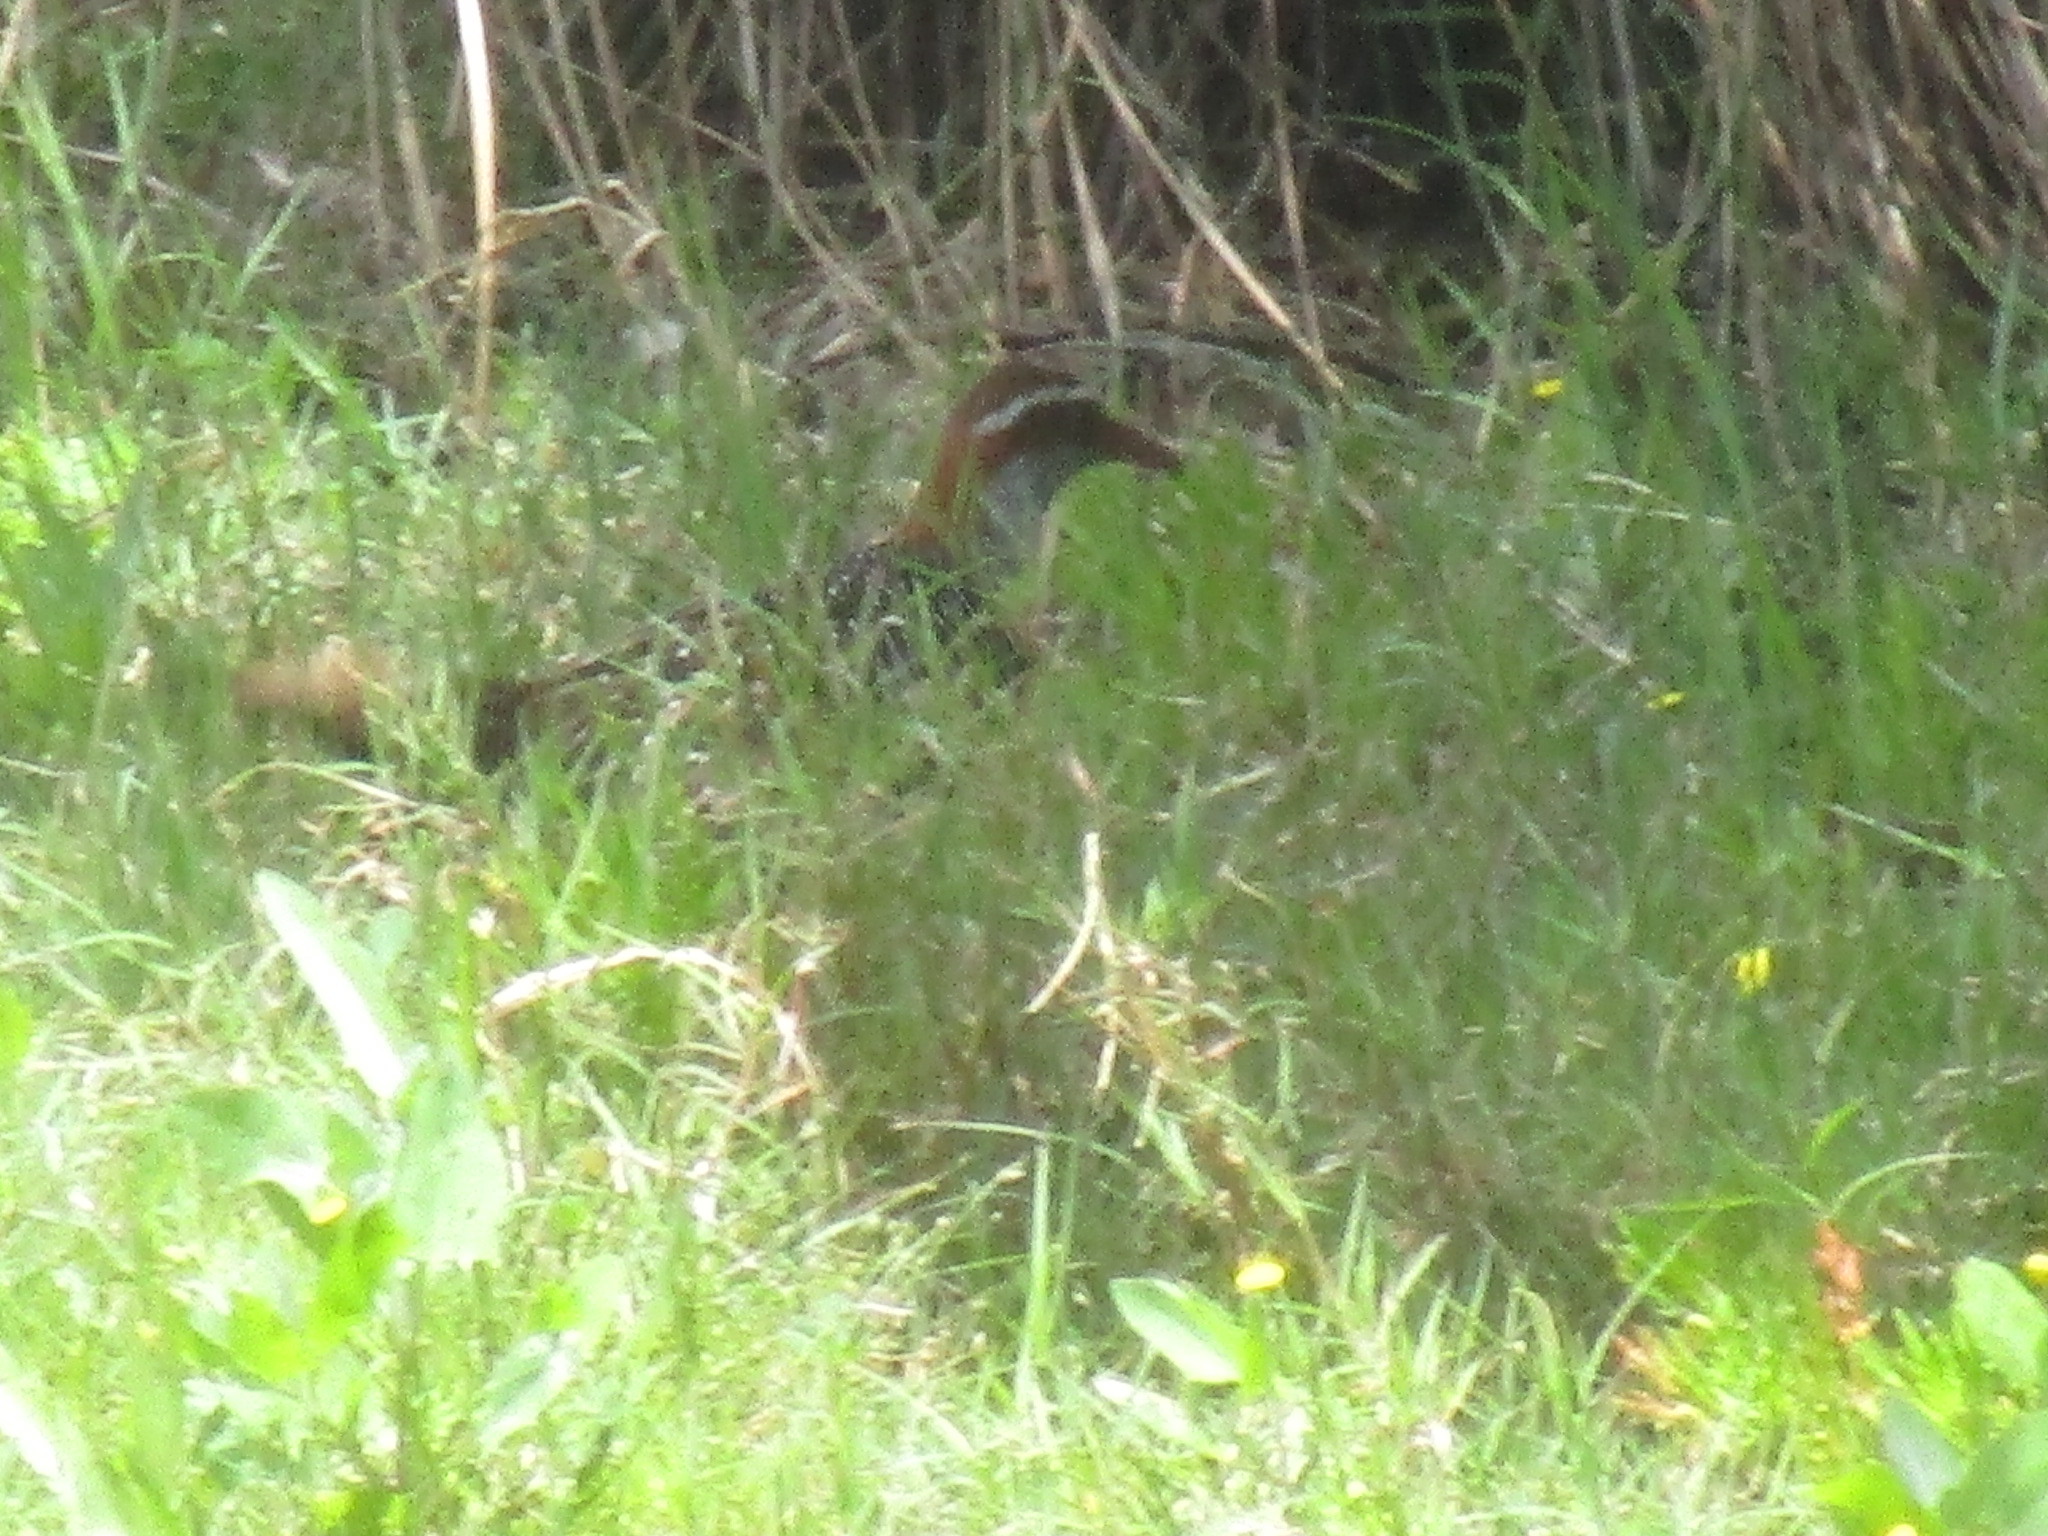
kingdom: Animalia
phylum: Chordata
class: Aves
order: Gruiformes
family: Rallidae
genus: Gallirallus
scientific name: Gallirallus philippensis
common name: Buff-banded rail
